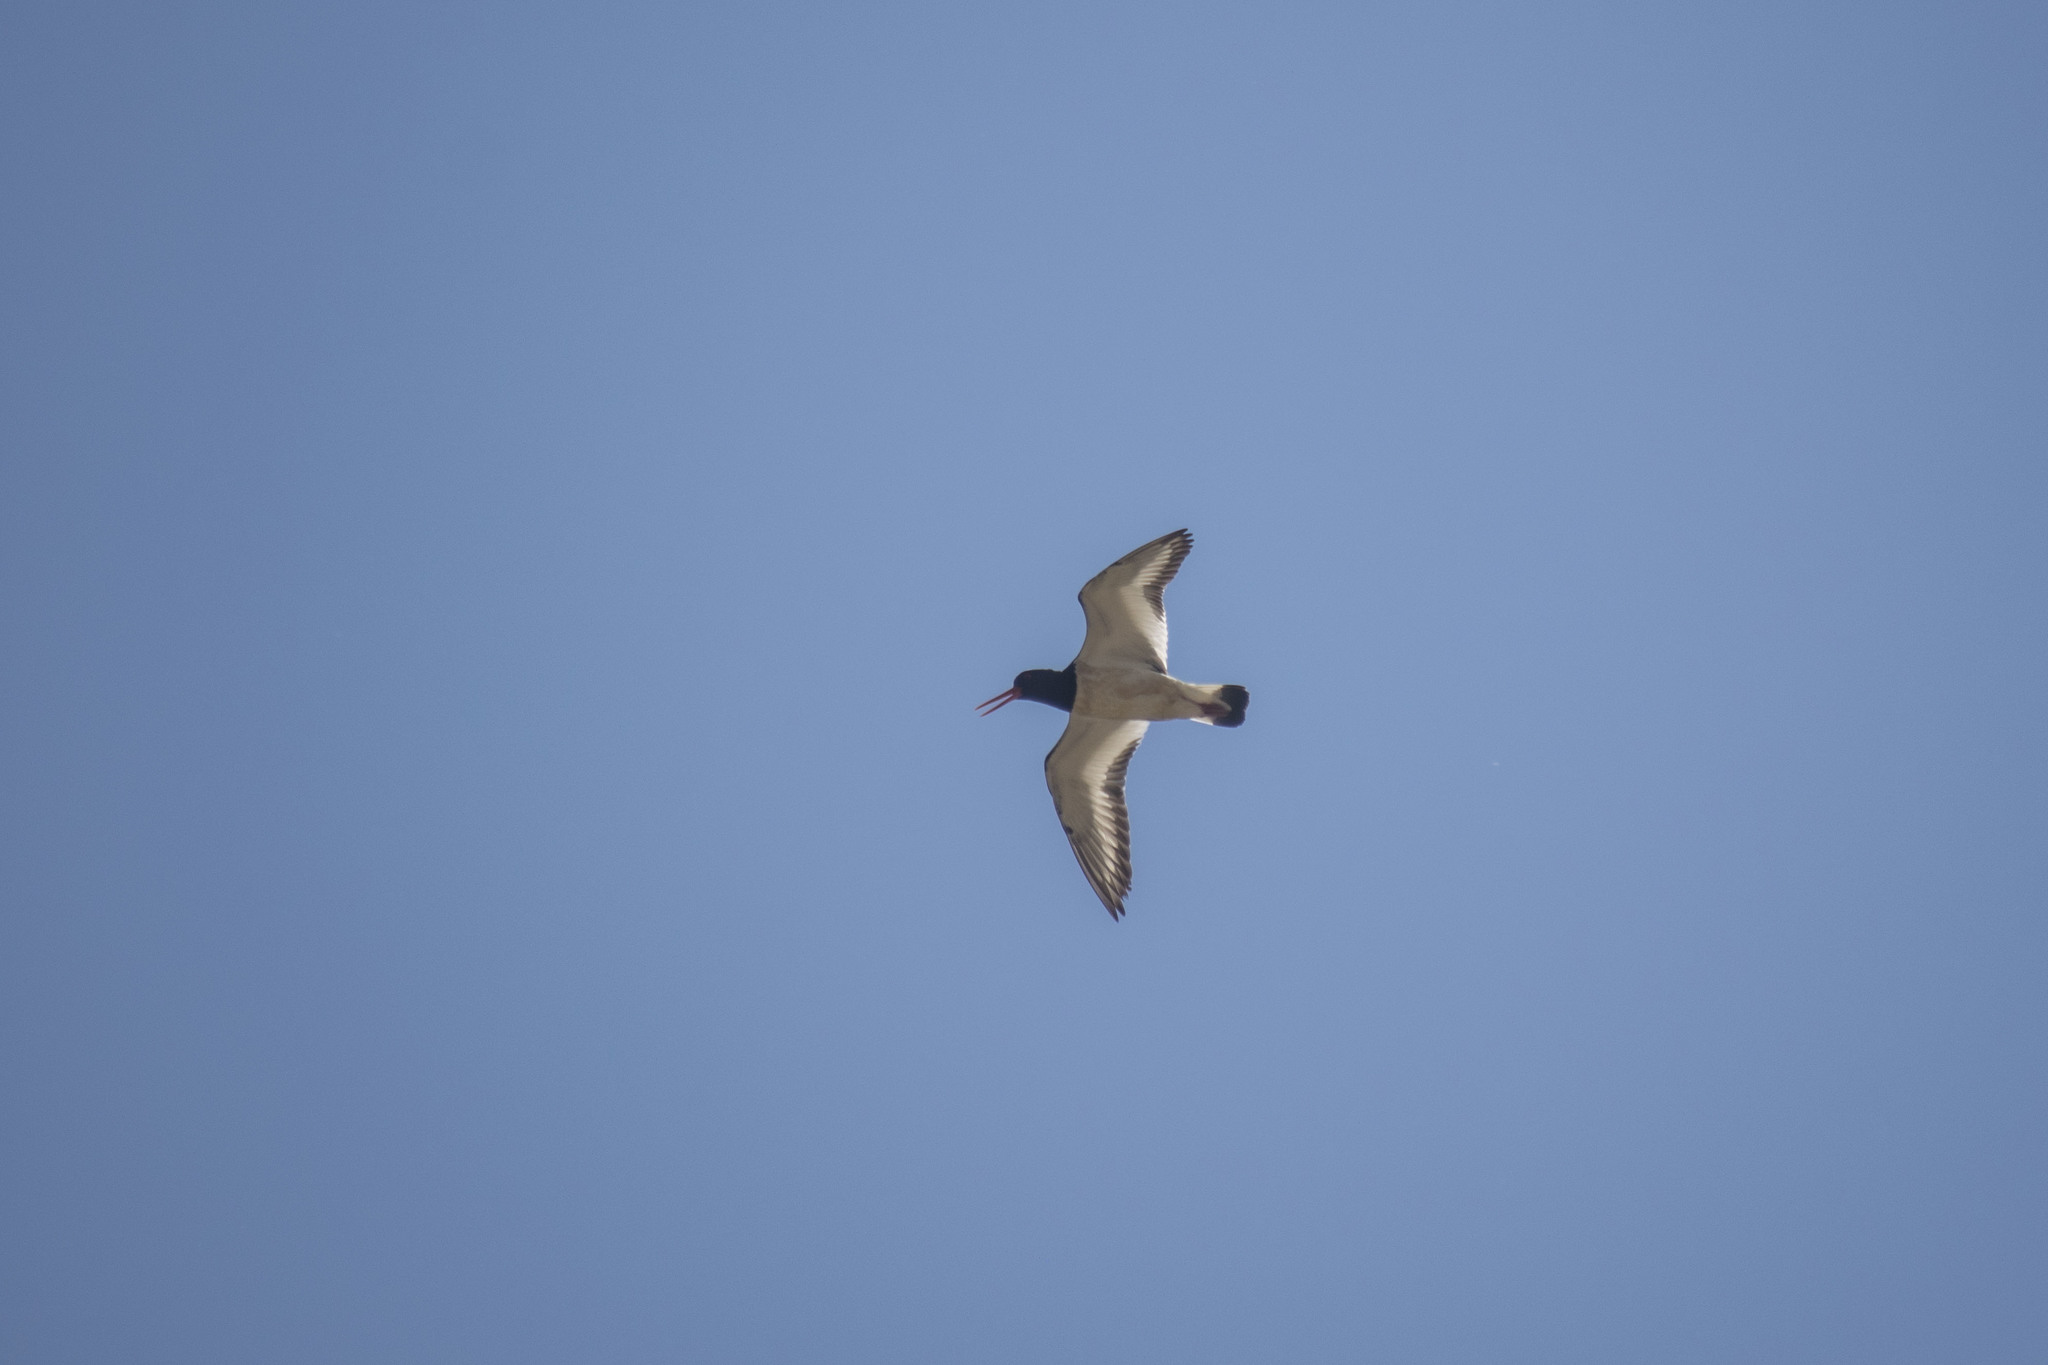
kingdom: Animalia
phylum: Chordata
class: Aves
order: Charadriiformes
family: Haematopodidae
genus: Haematopus
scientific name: Haematopus ostralegus
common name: Eurasian oystercatcher
